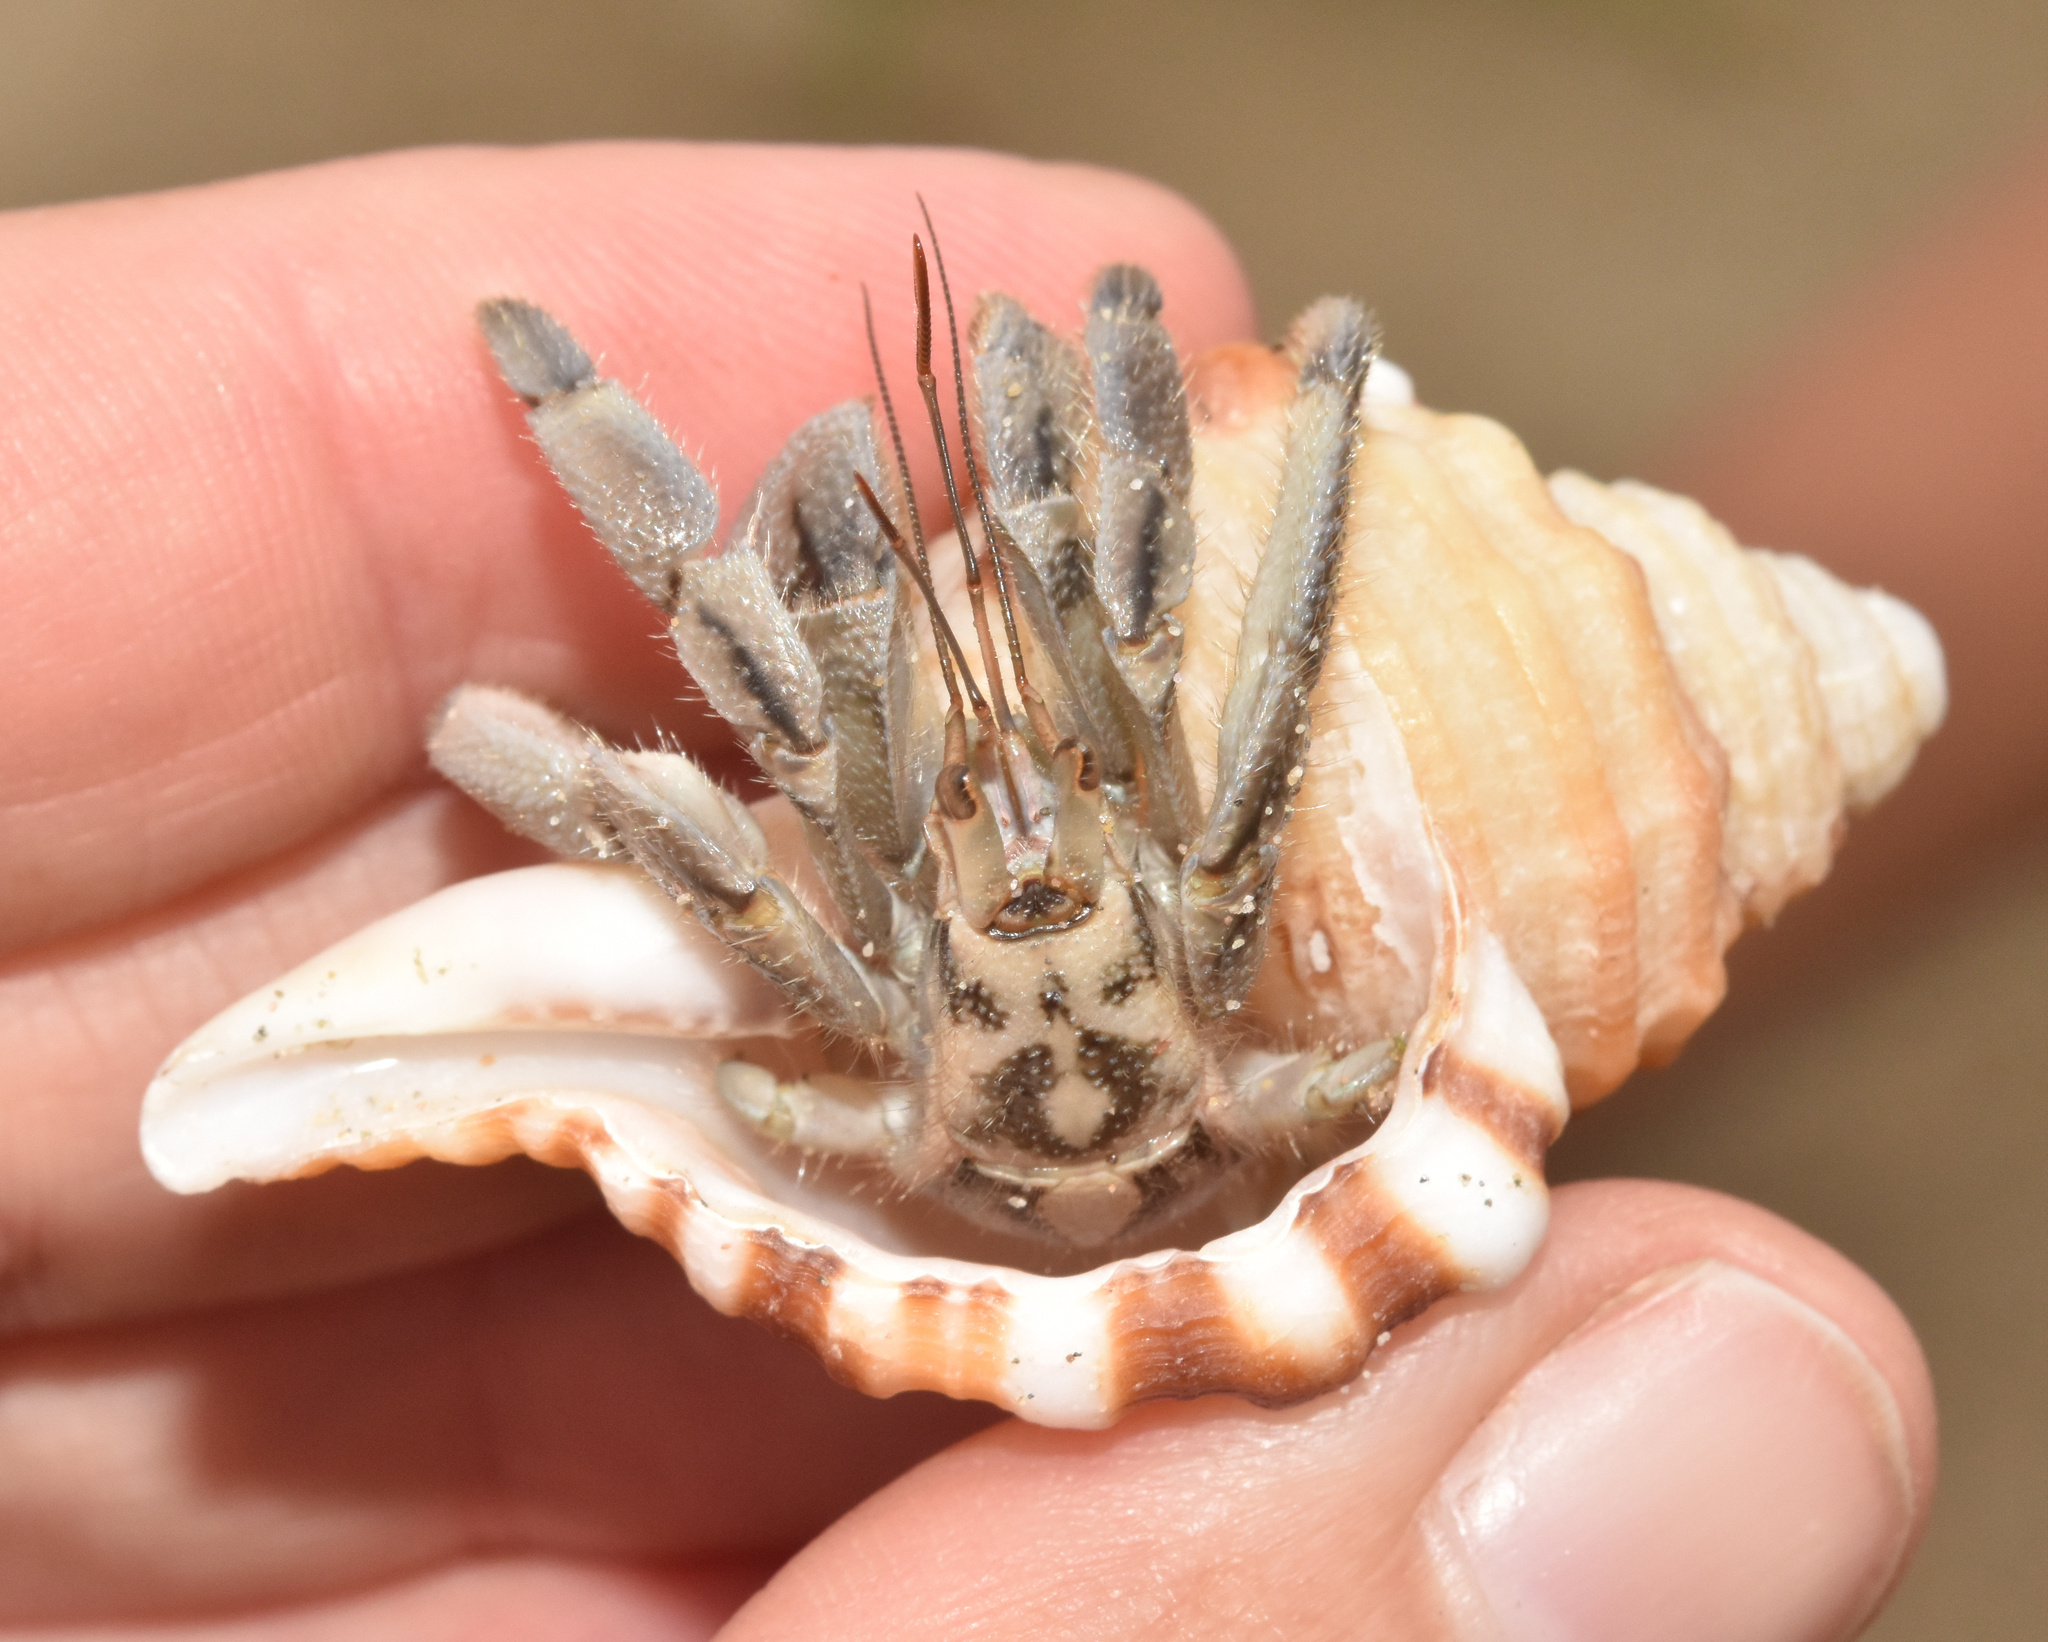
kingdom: Animalia
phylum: Arthropoda
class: Malacostraca
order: Decapoda
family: Coenobitidae
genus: Coenobita
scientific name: Coenobita rugosus
